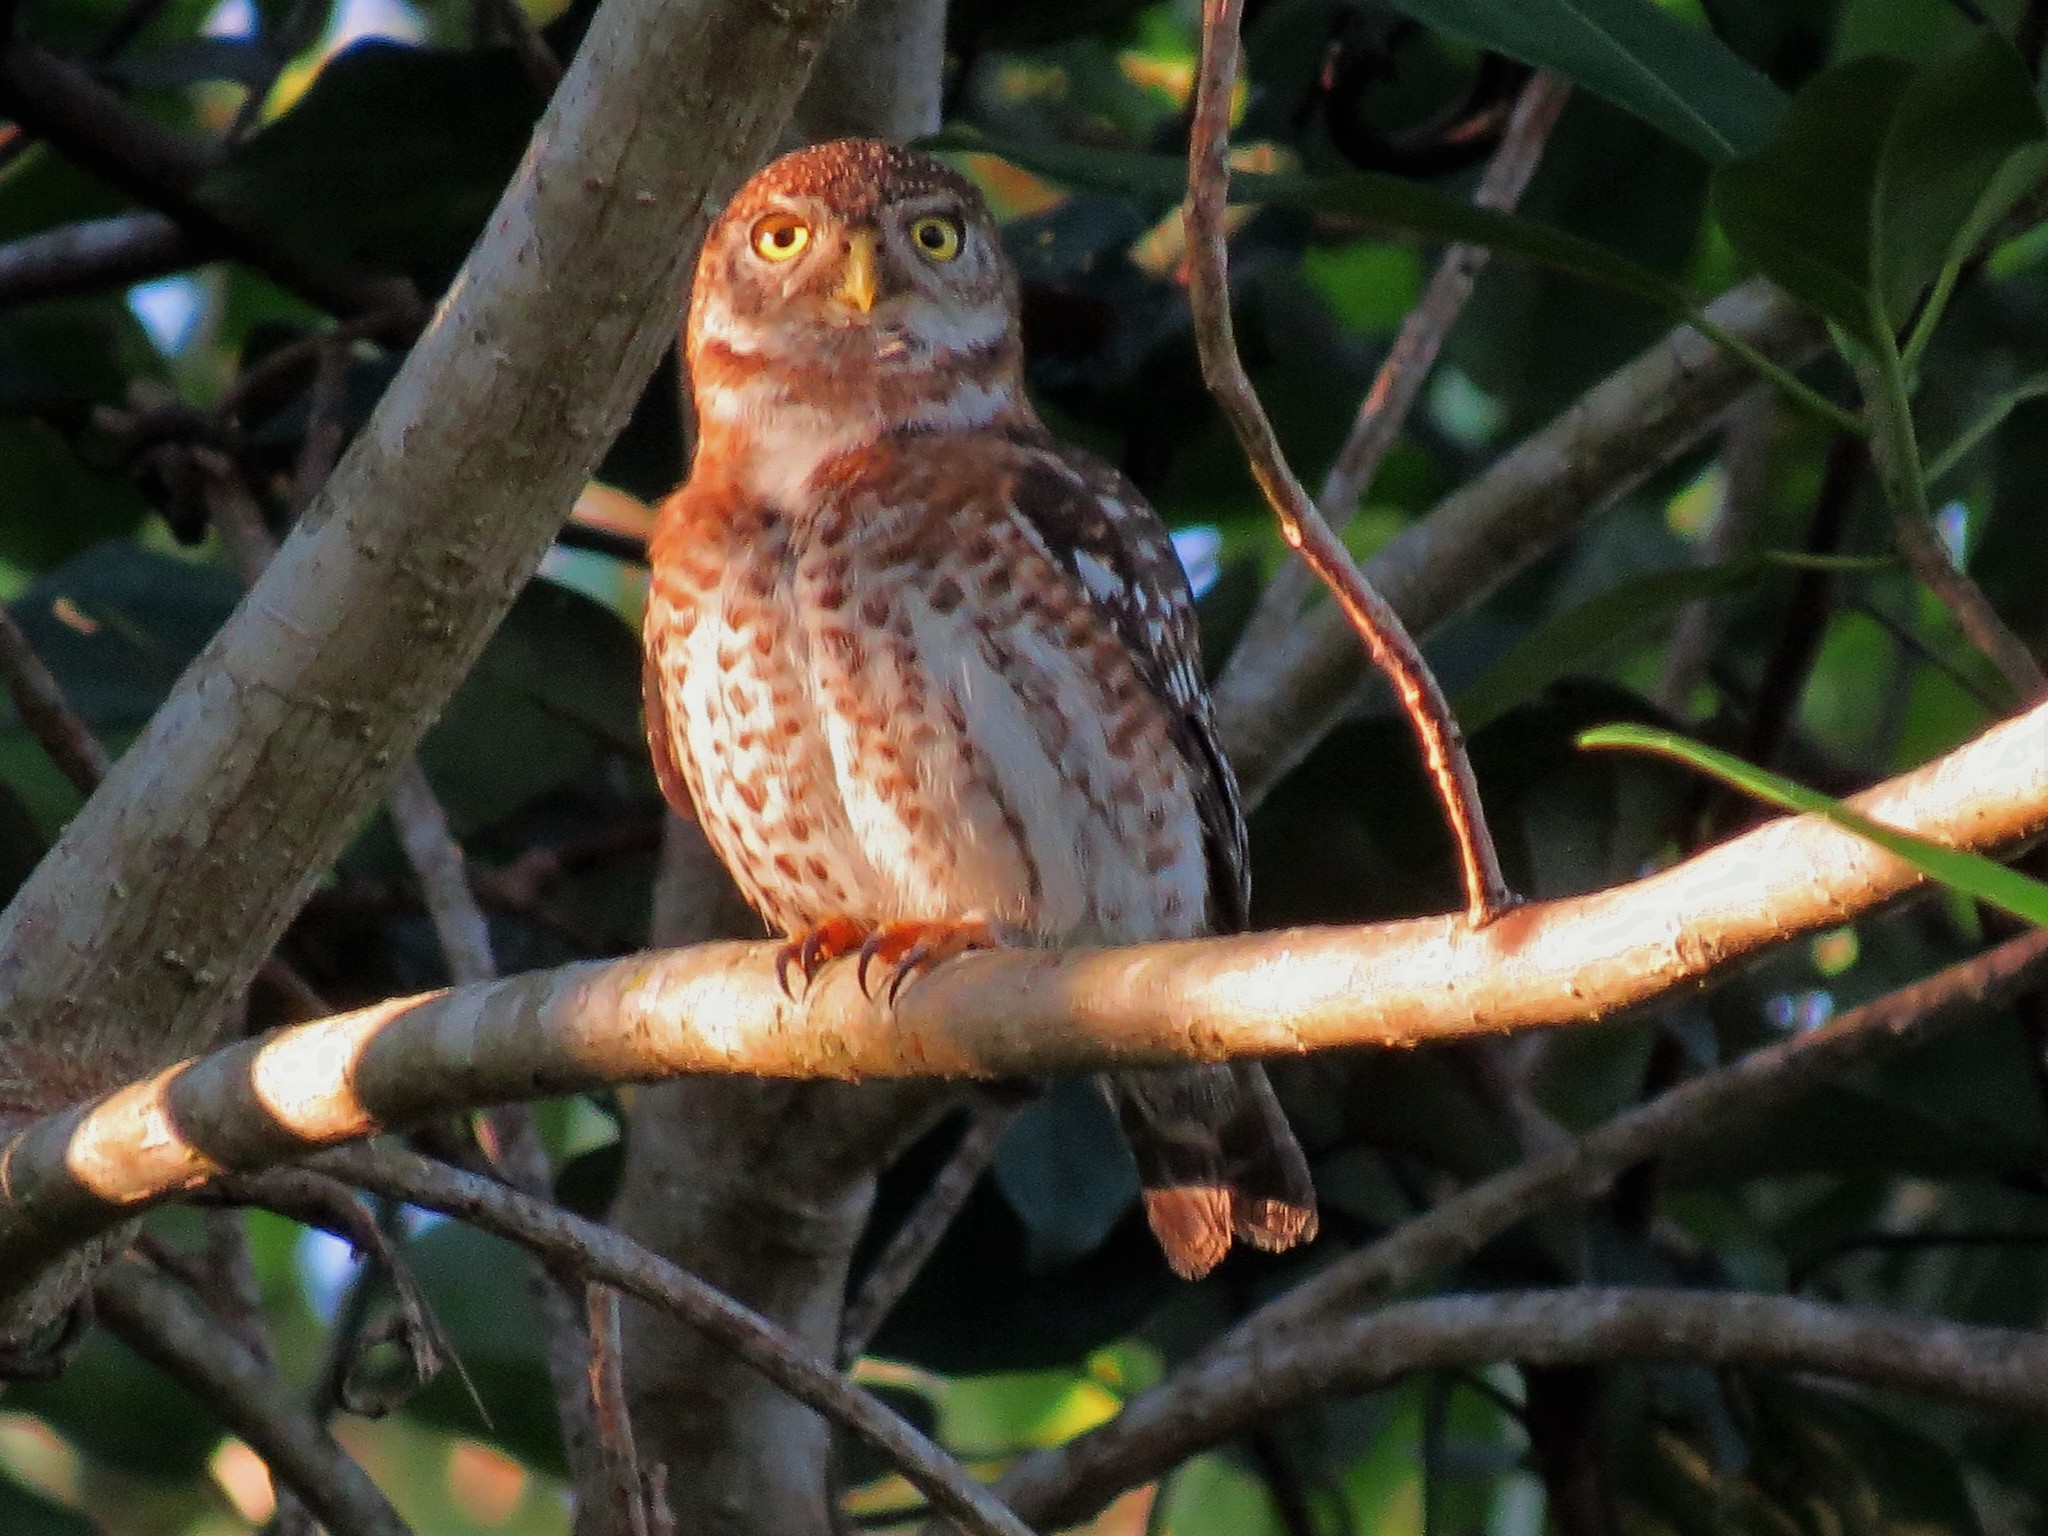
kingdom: Animalia
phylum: Chordata
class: Aves
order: Strigiformes
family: Strigidae
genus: Glaucidium
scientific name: Glaucidium siju
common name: Cuban pygmy-owl
